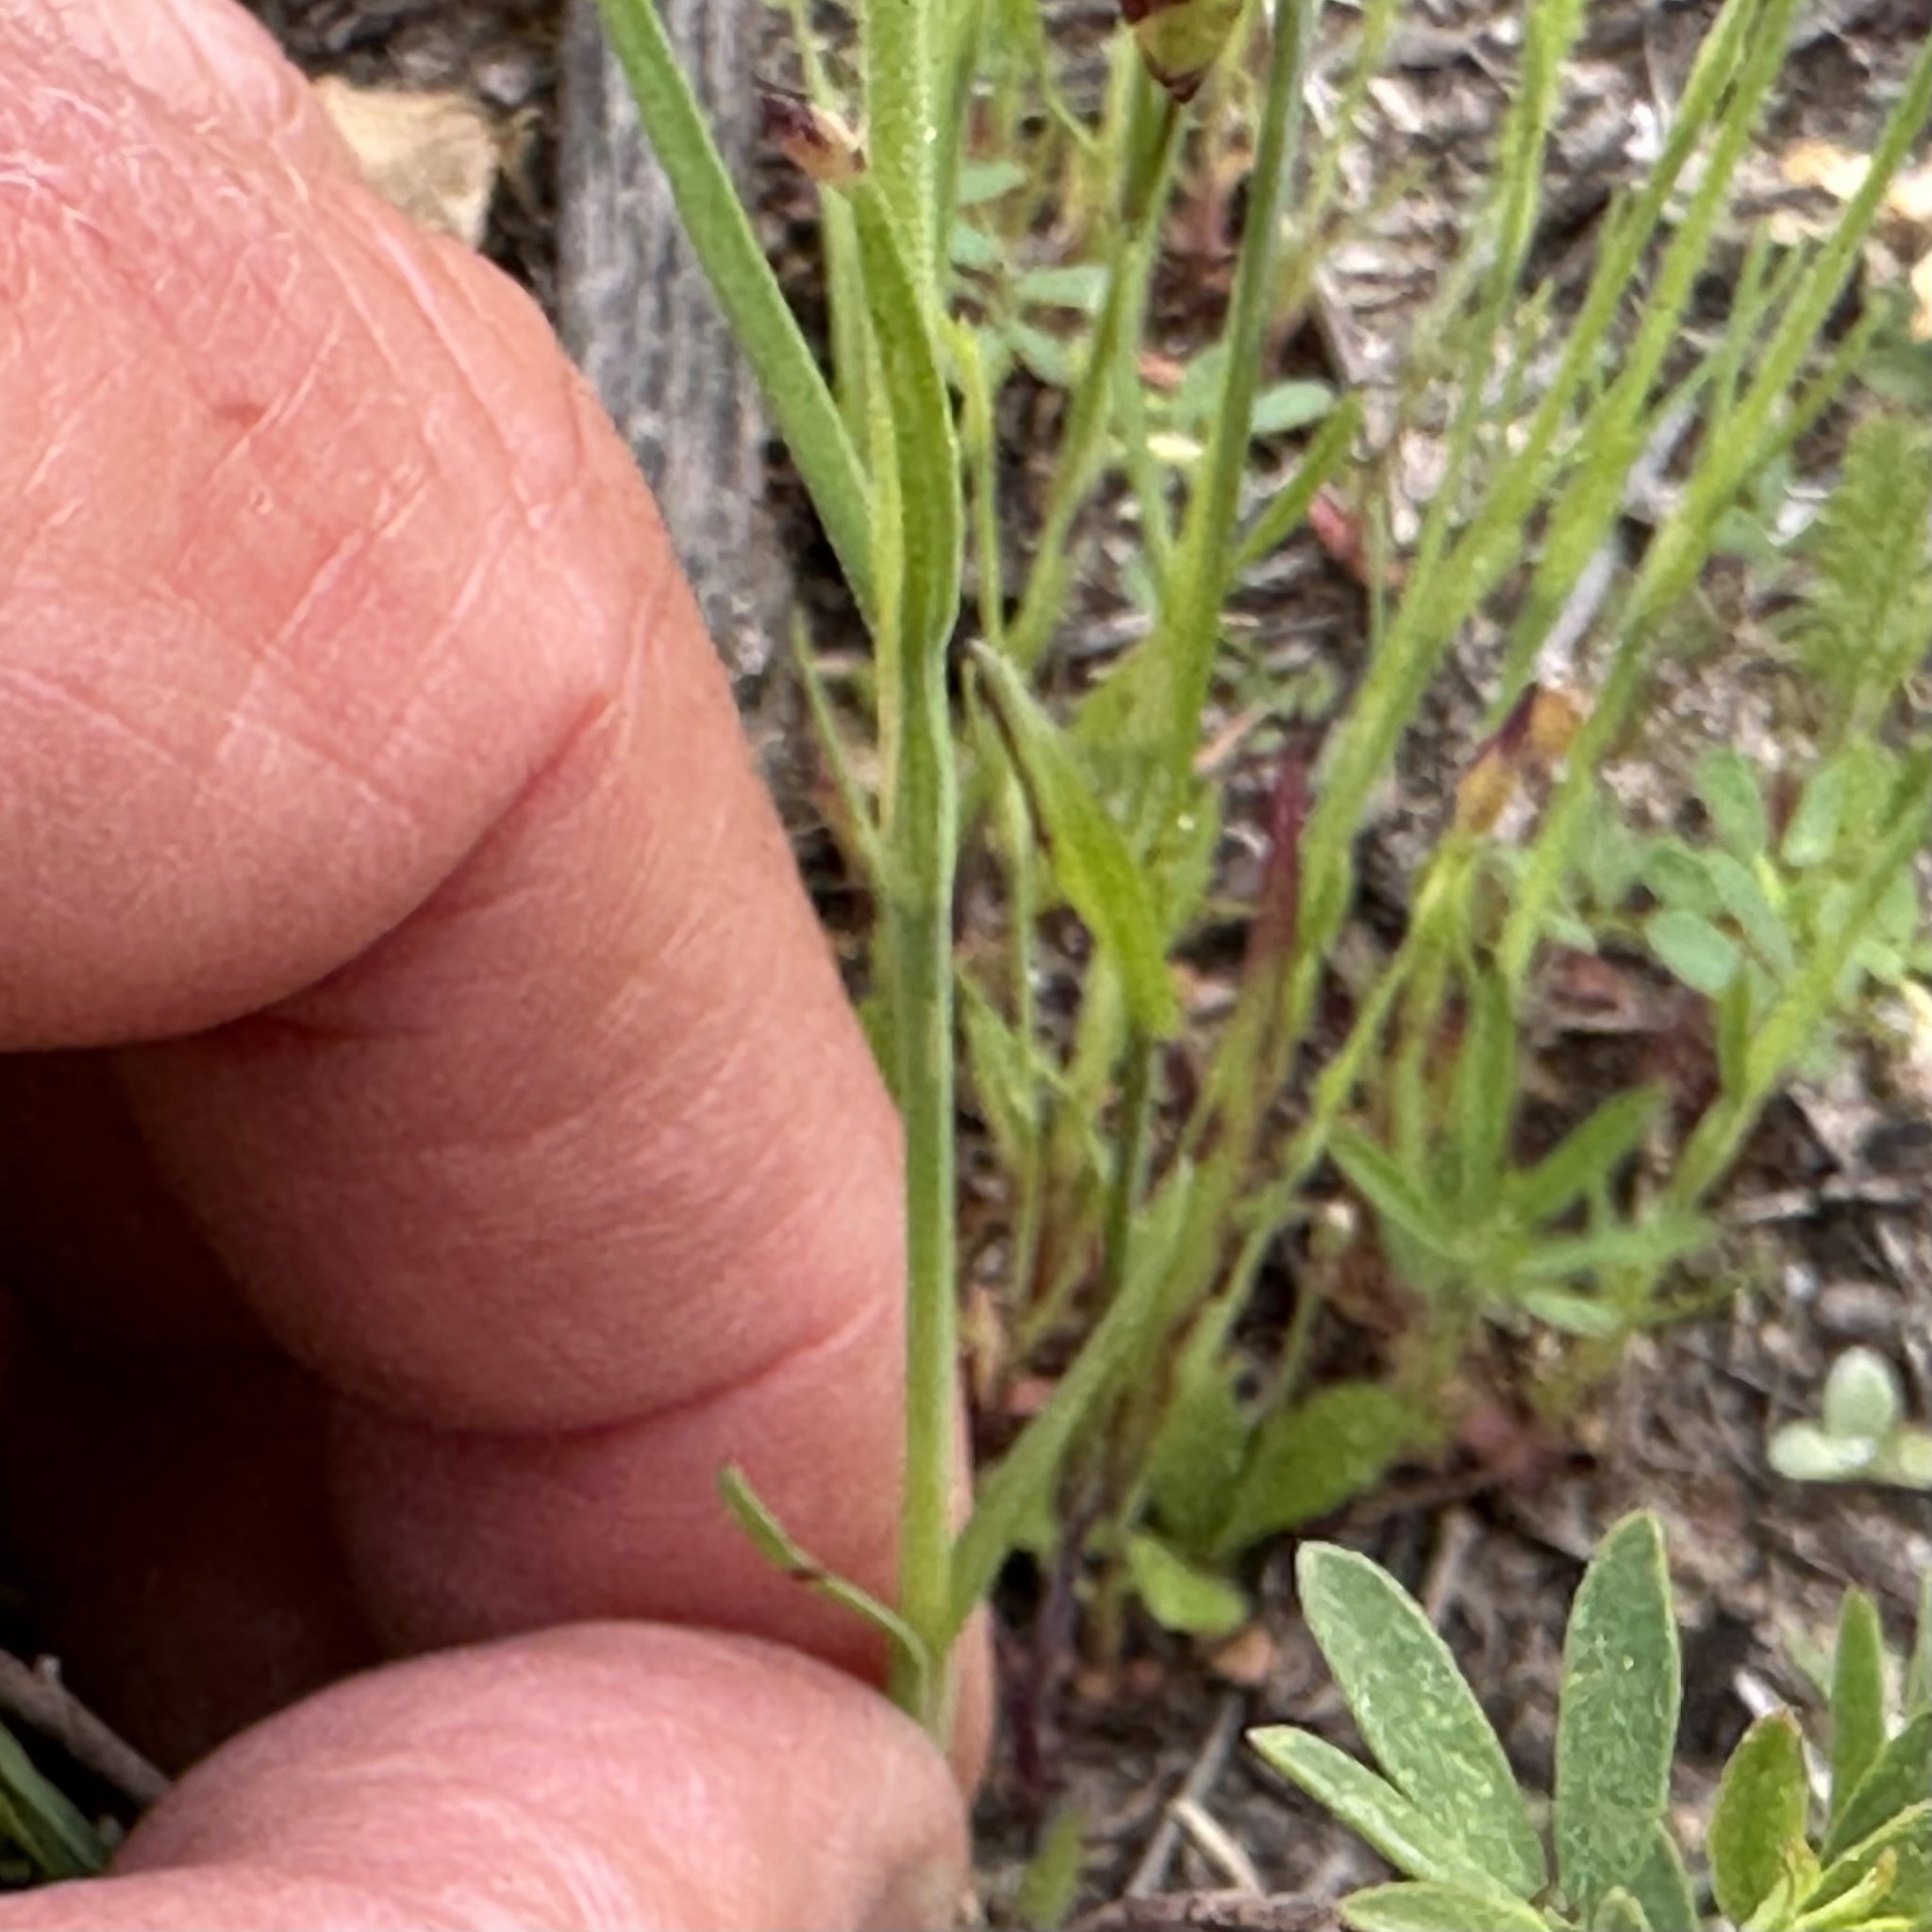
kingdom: Plantae
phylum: Tracheophyta
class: Magnoliopsida
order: Caryophyllales
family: Caryophyllaceae
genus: Petrorhagia
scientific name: Petrorhagia dubia
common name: Hairypink
